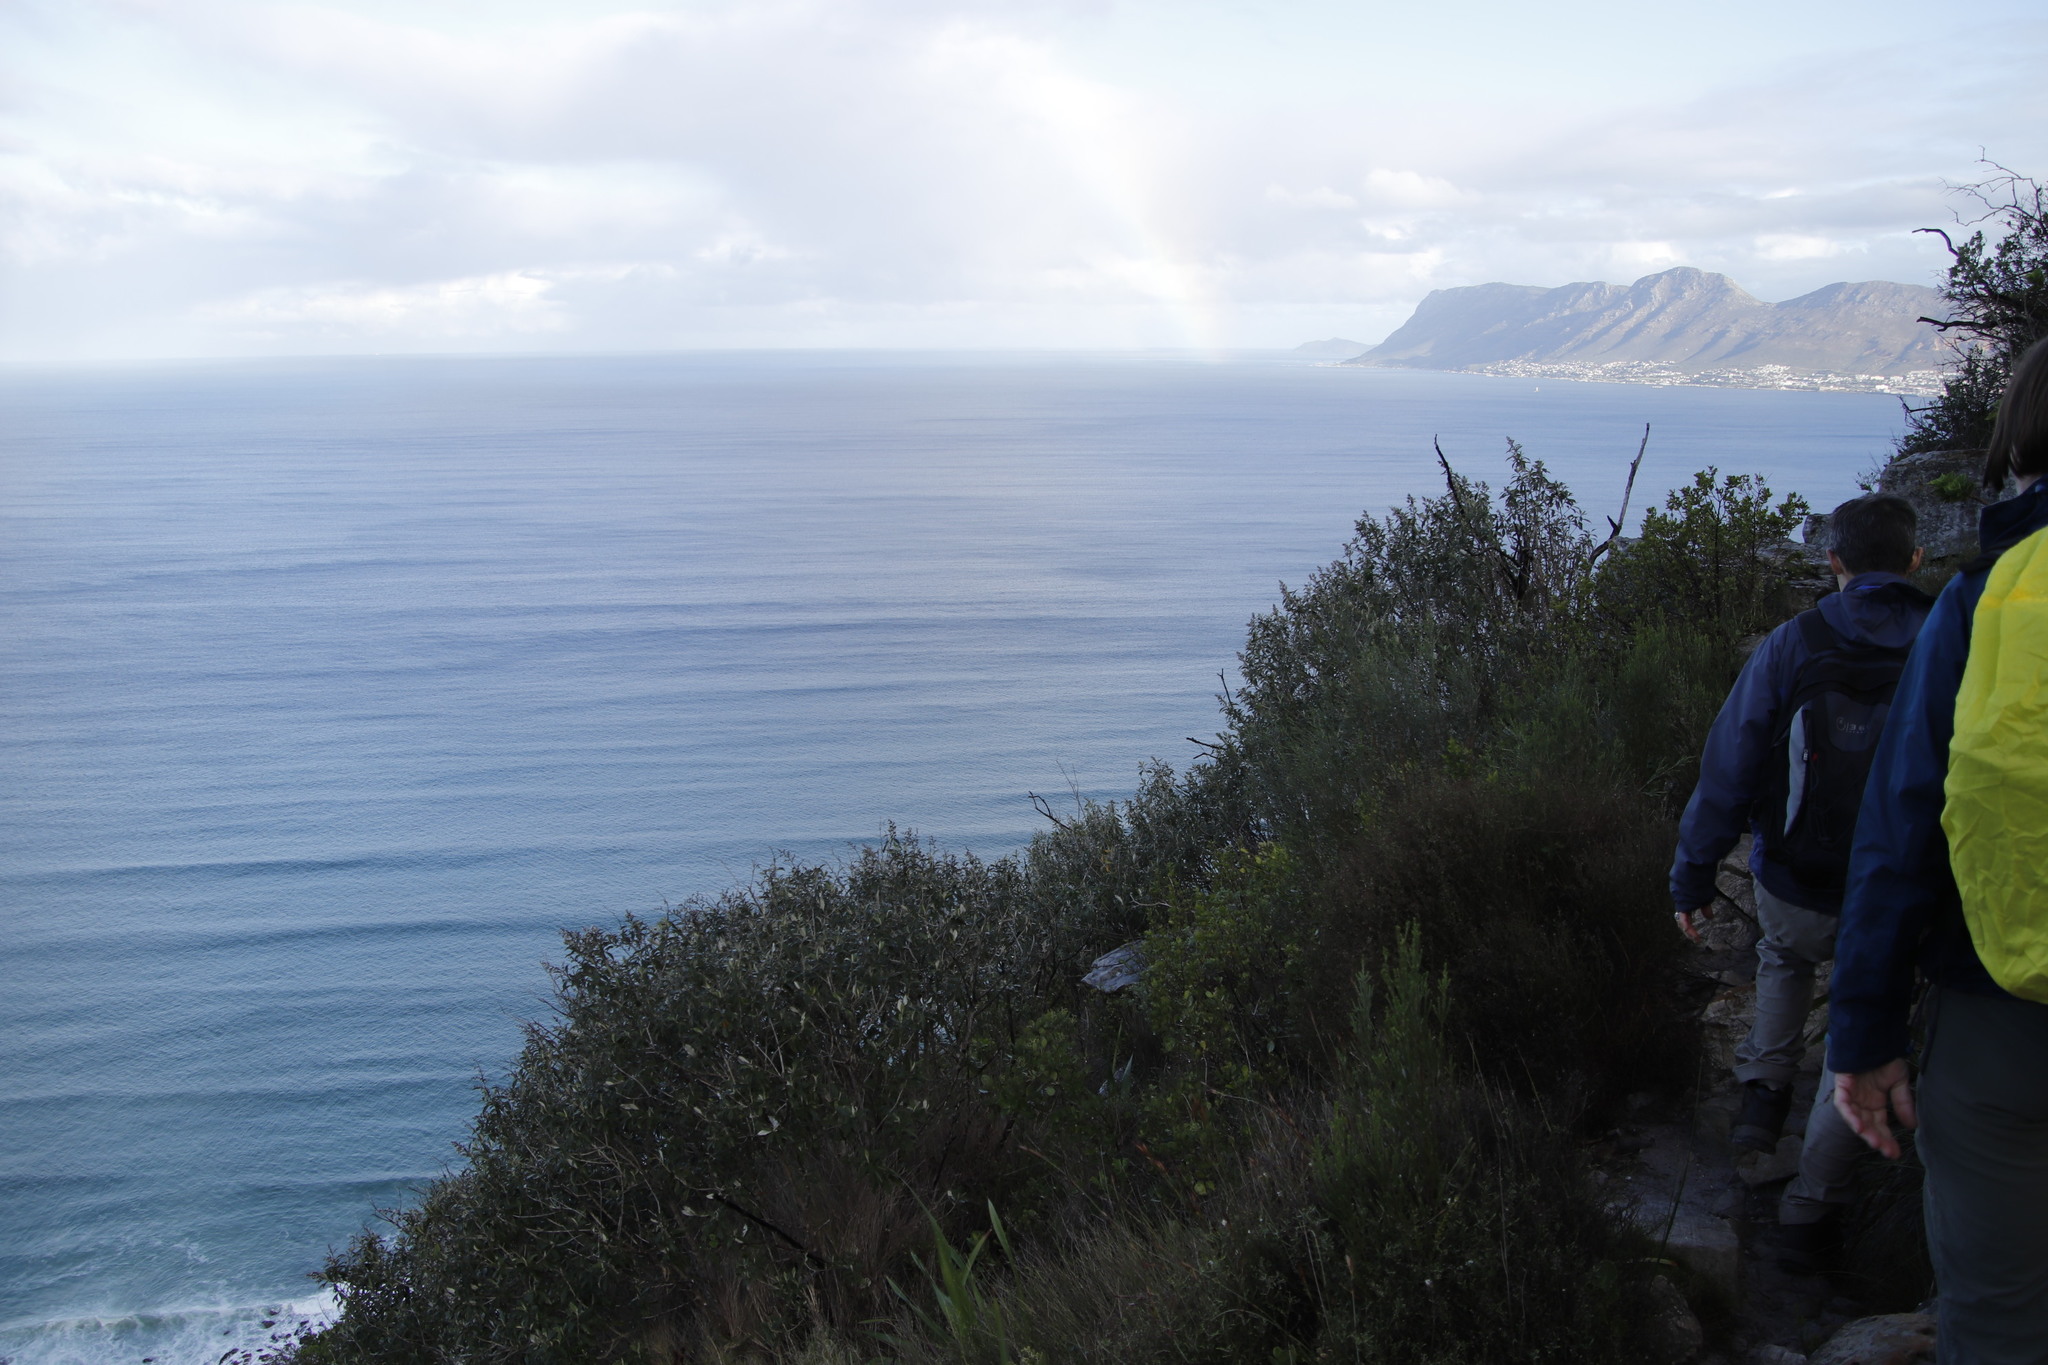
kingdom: Plantae
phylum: Tracheophyta
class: Magnoliopsida
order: Asterales
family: Asteraceae
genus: Tarchonanthus
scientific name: Tarchonanthus littoralis
